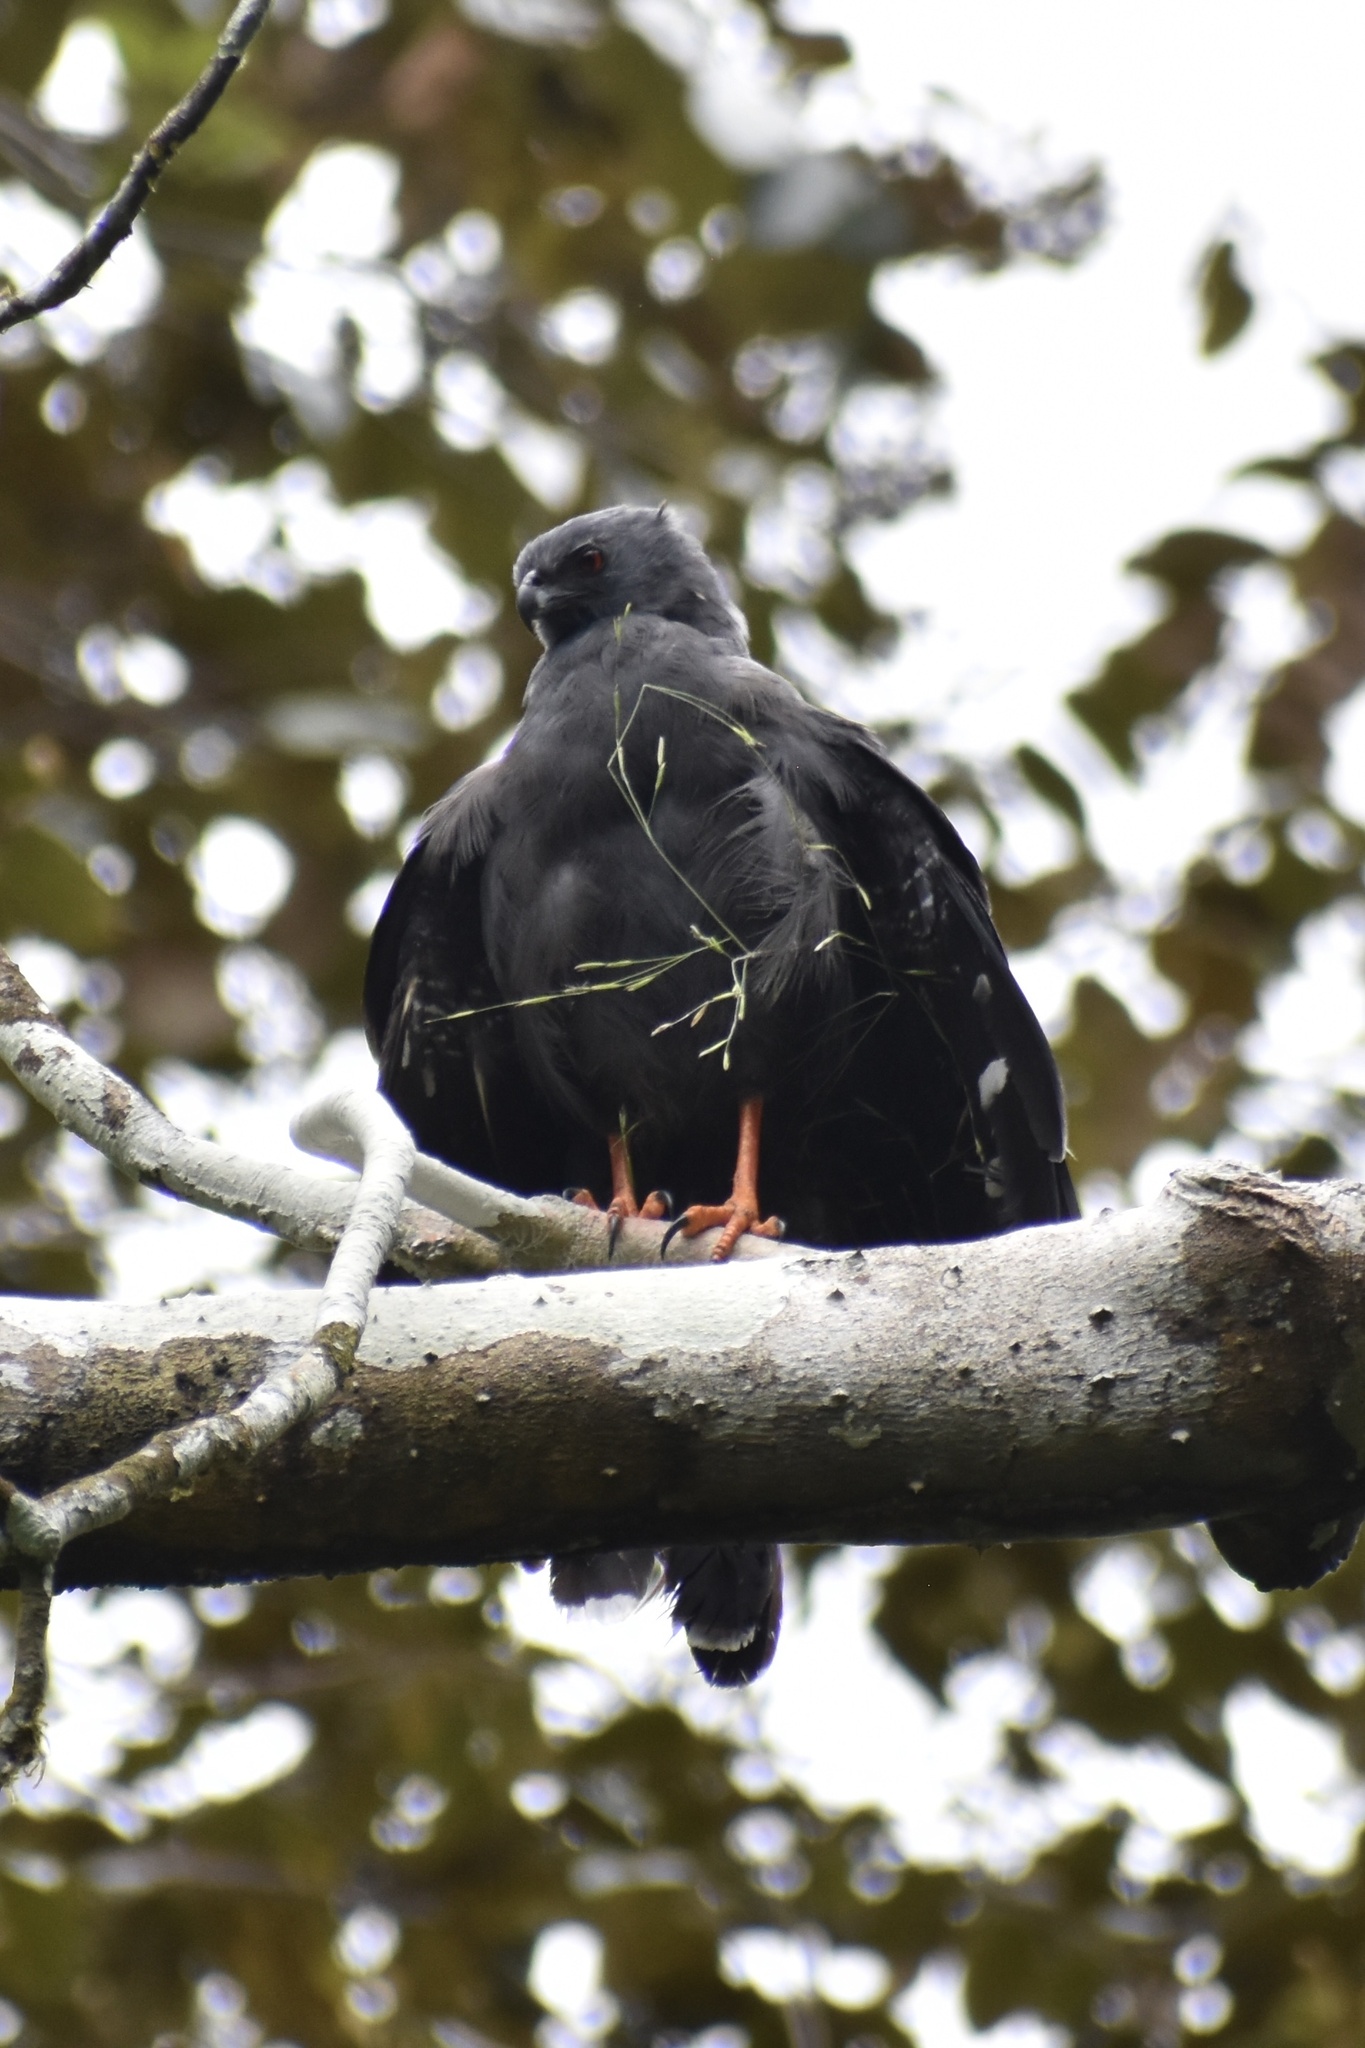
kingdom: Animalia
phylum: Chordata
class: Aves
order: Accipitriformes
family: Accipitridae
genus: Geranospiza
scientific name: Geranospiza caerulescens
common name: Crane hawk
